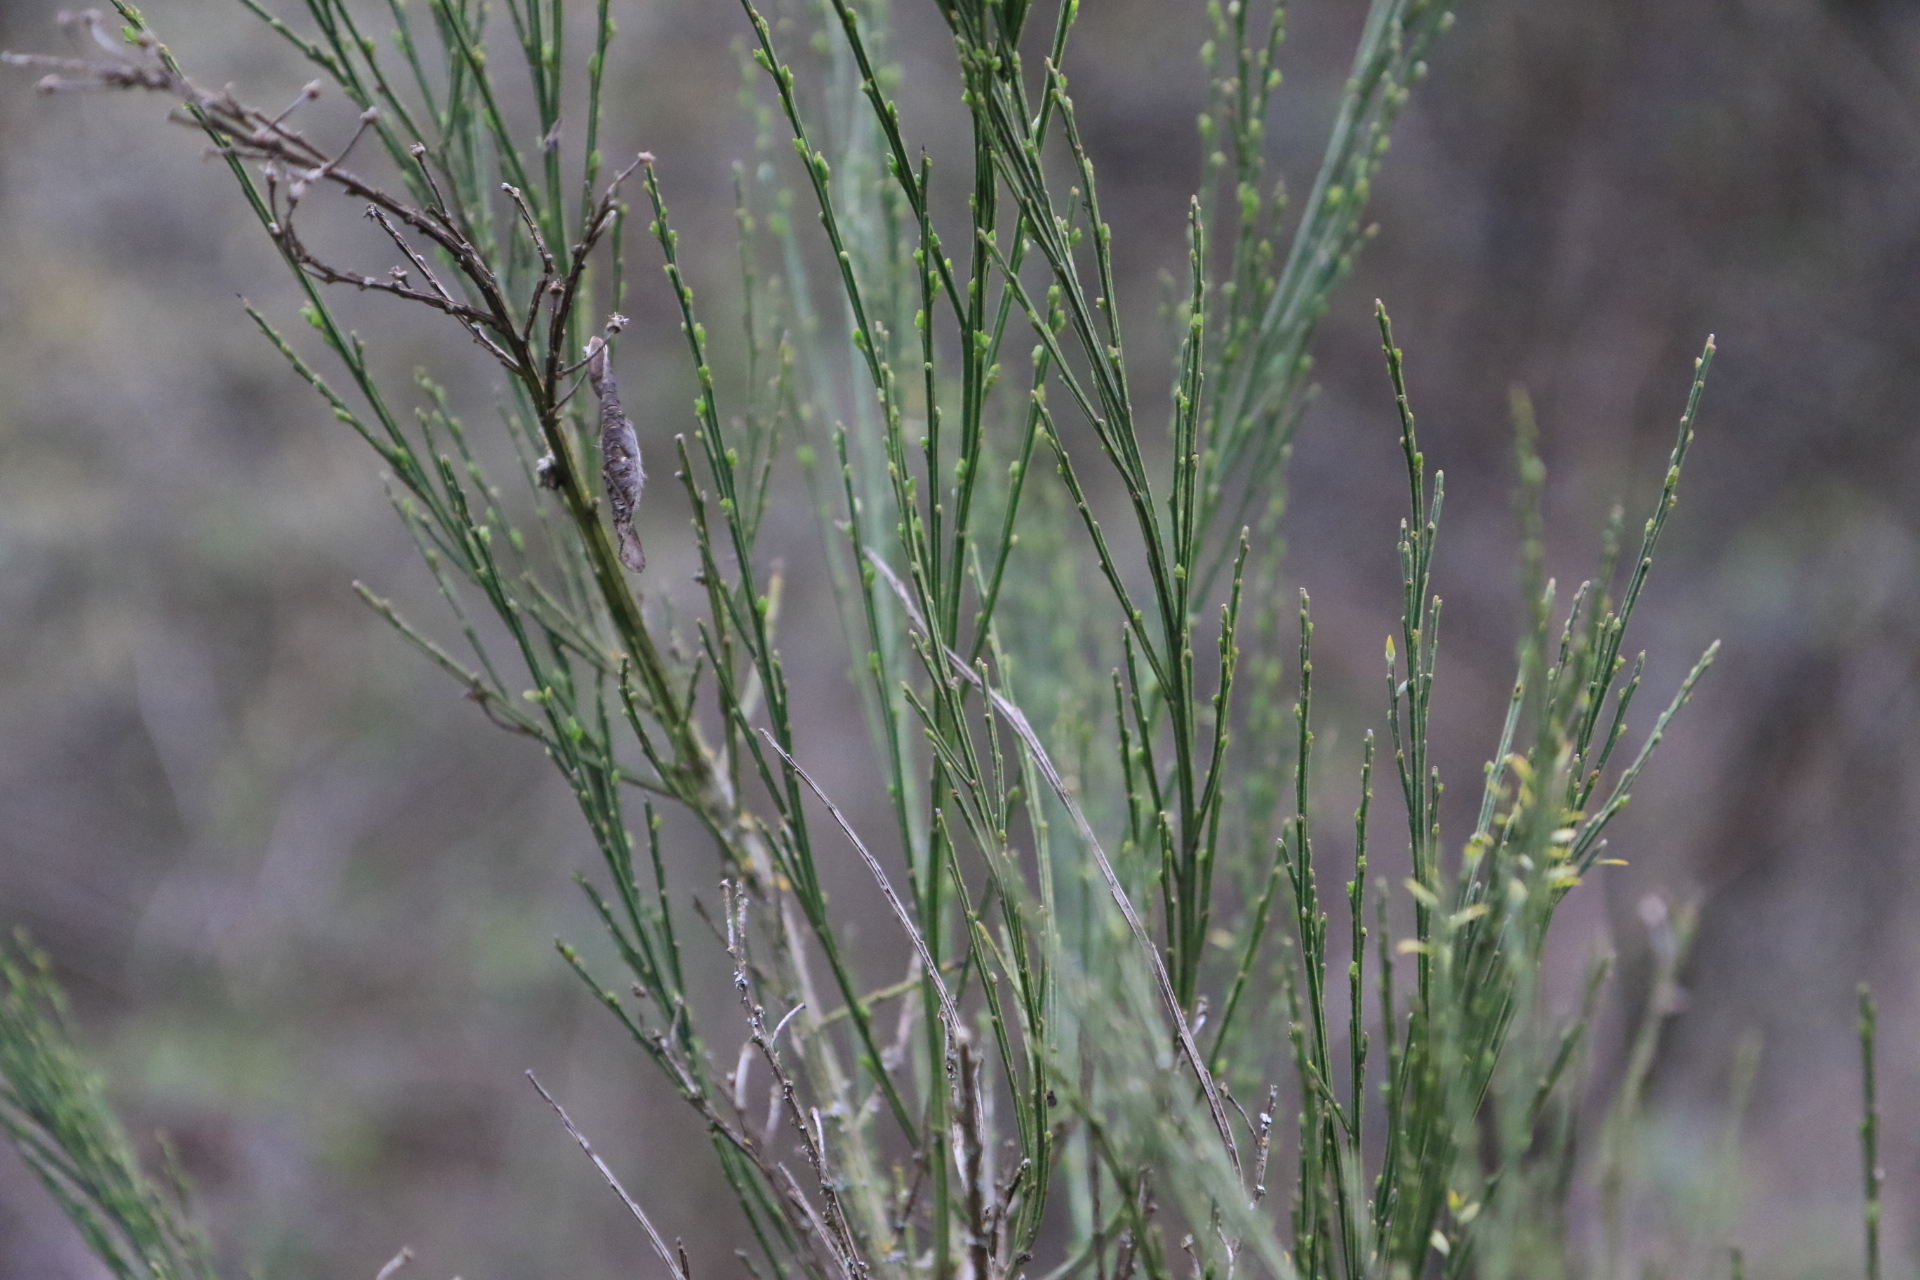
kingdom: Plantae
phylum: Tracheophyta
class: Magnoliopsida
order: Fabales
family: Fabaceae
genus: Cytisus
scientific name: Cytisus scoparius
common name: Scotch broom
